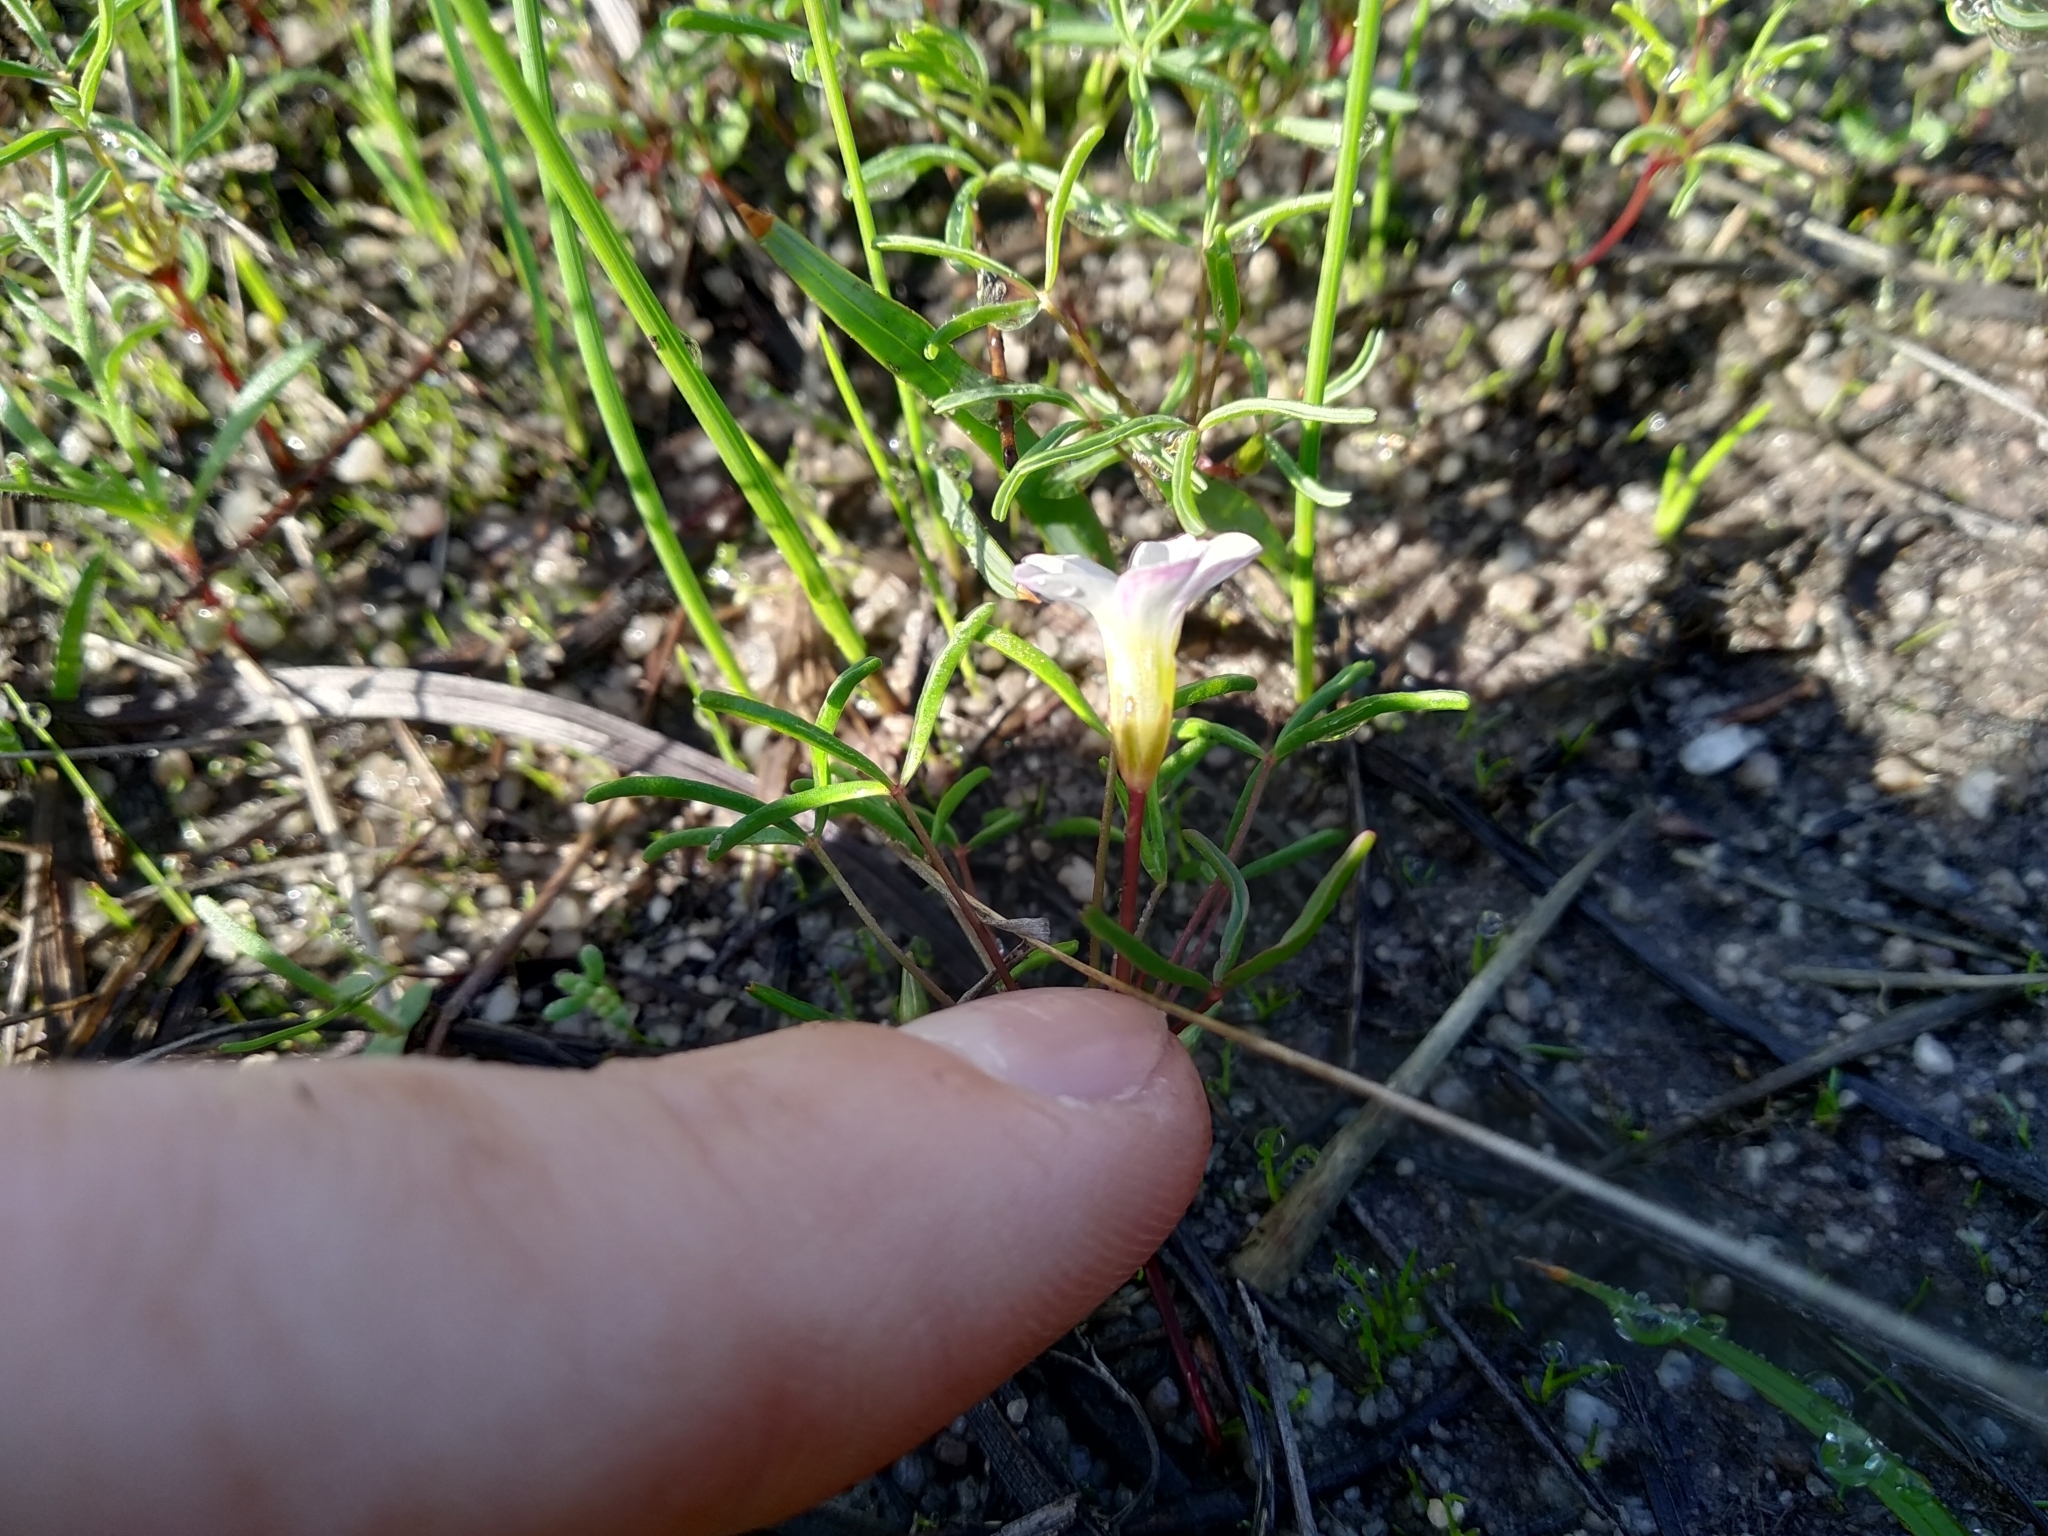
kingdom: Plantae
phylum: Tracheophyta
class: Magnoliopsida
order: Oxalidales
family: Oxalidaceae
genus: Oxalis
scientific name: Oxalis pusilla
